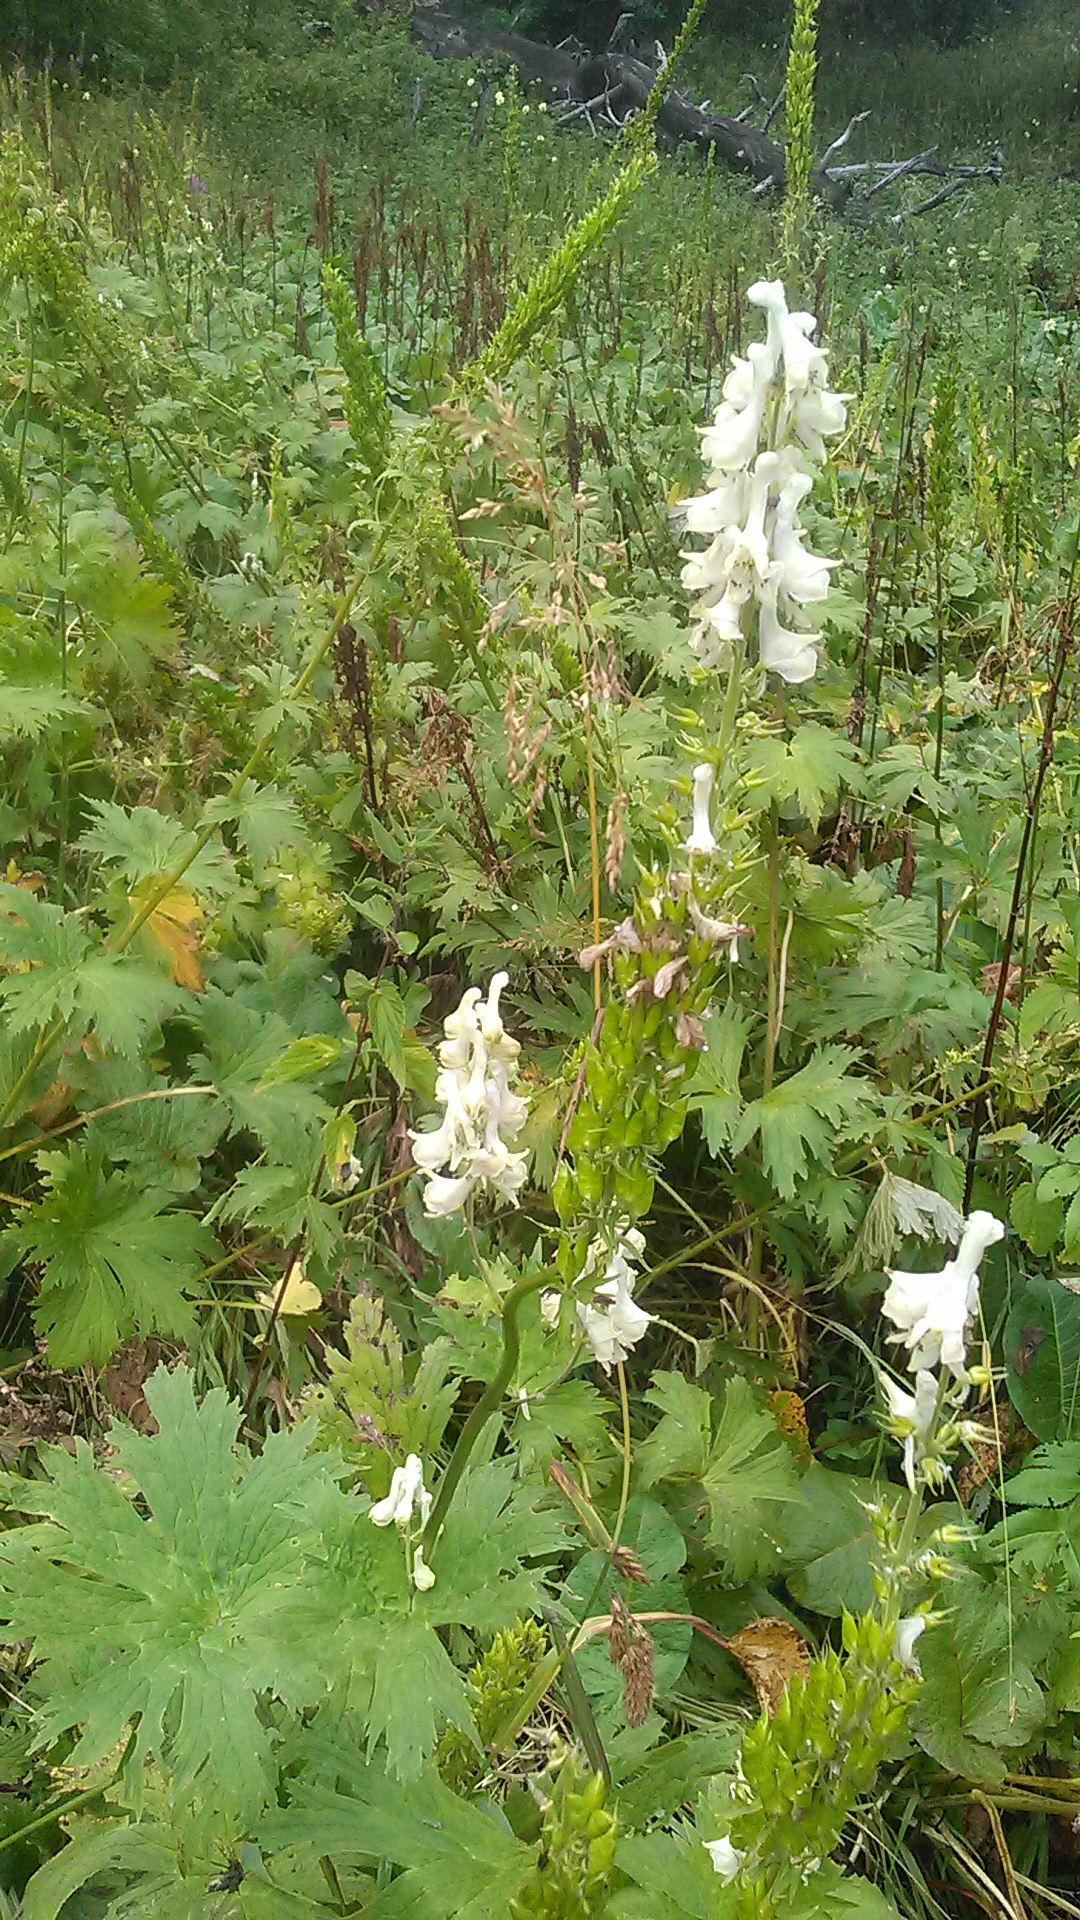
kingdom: Plantae
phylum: Tracheophyta
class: Magnoliopsida
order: Ranunculales
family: Ranunculaceae
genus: Aconitum
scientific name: Aconitum orientale
